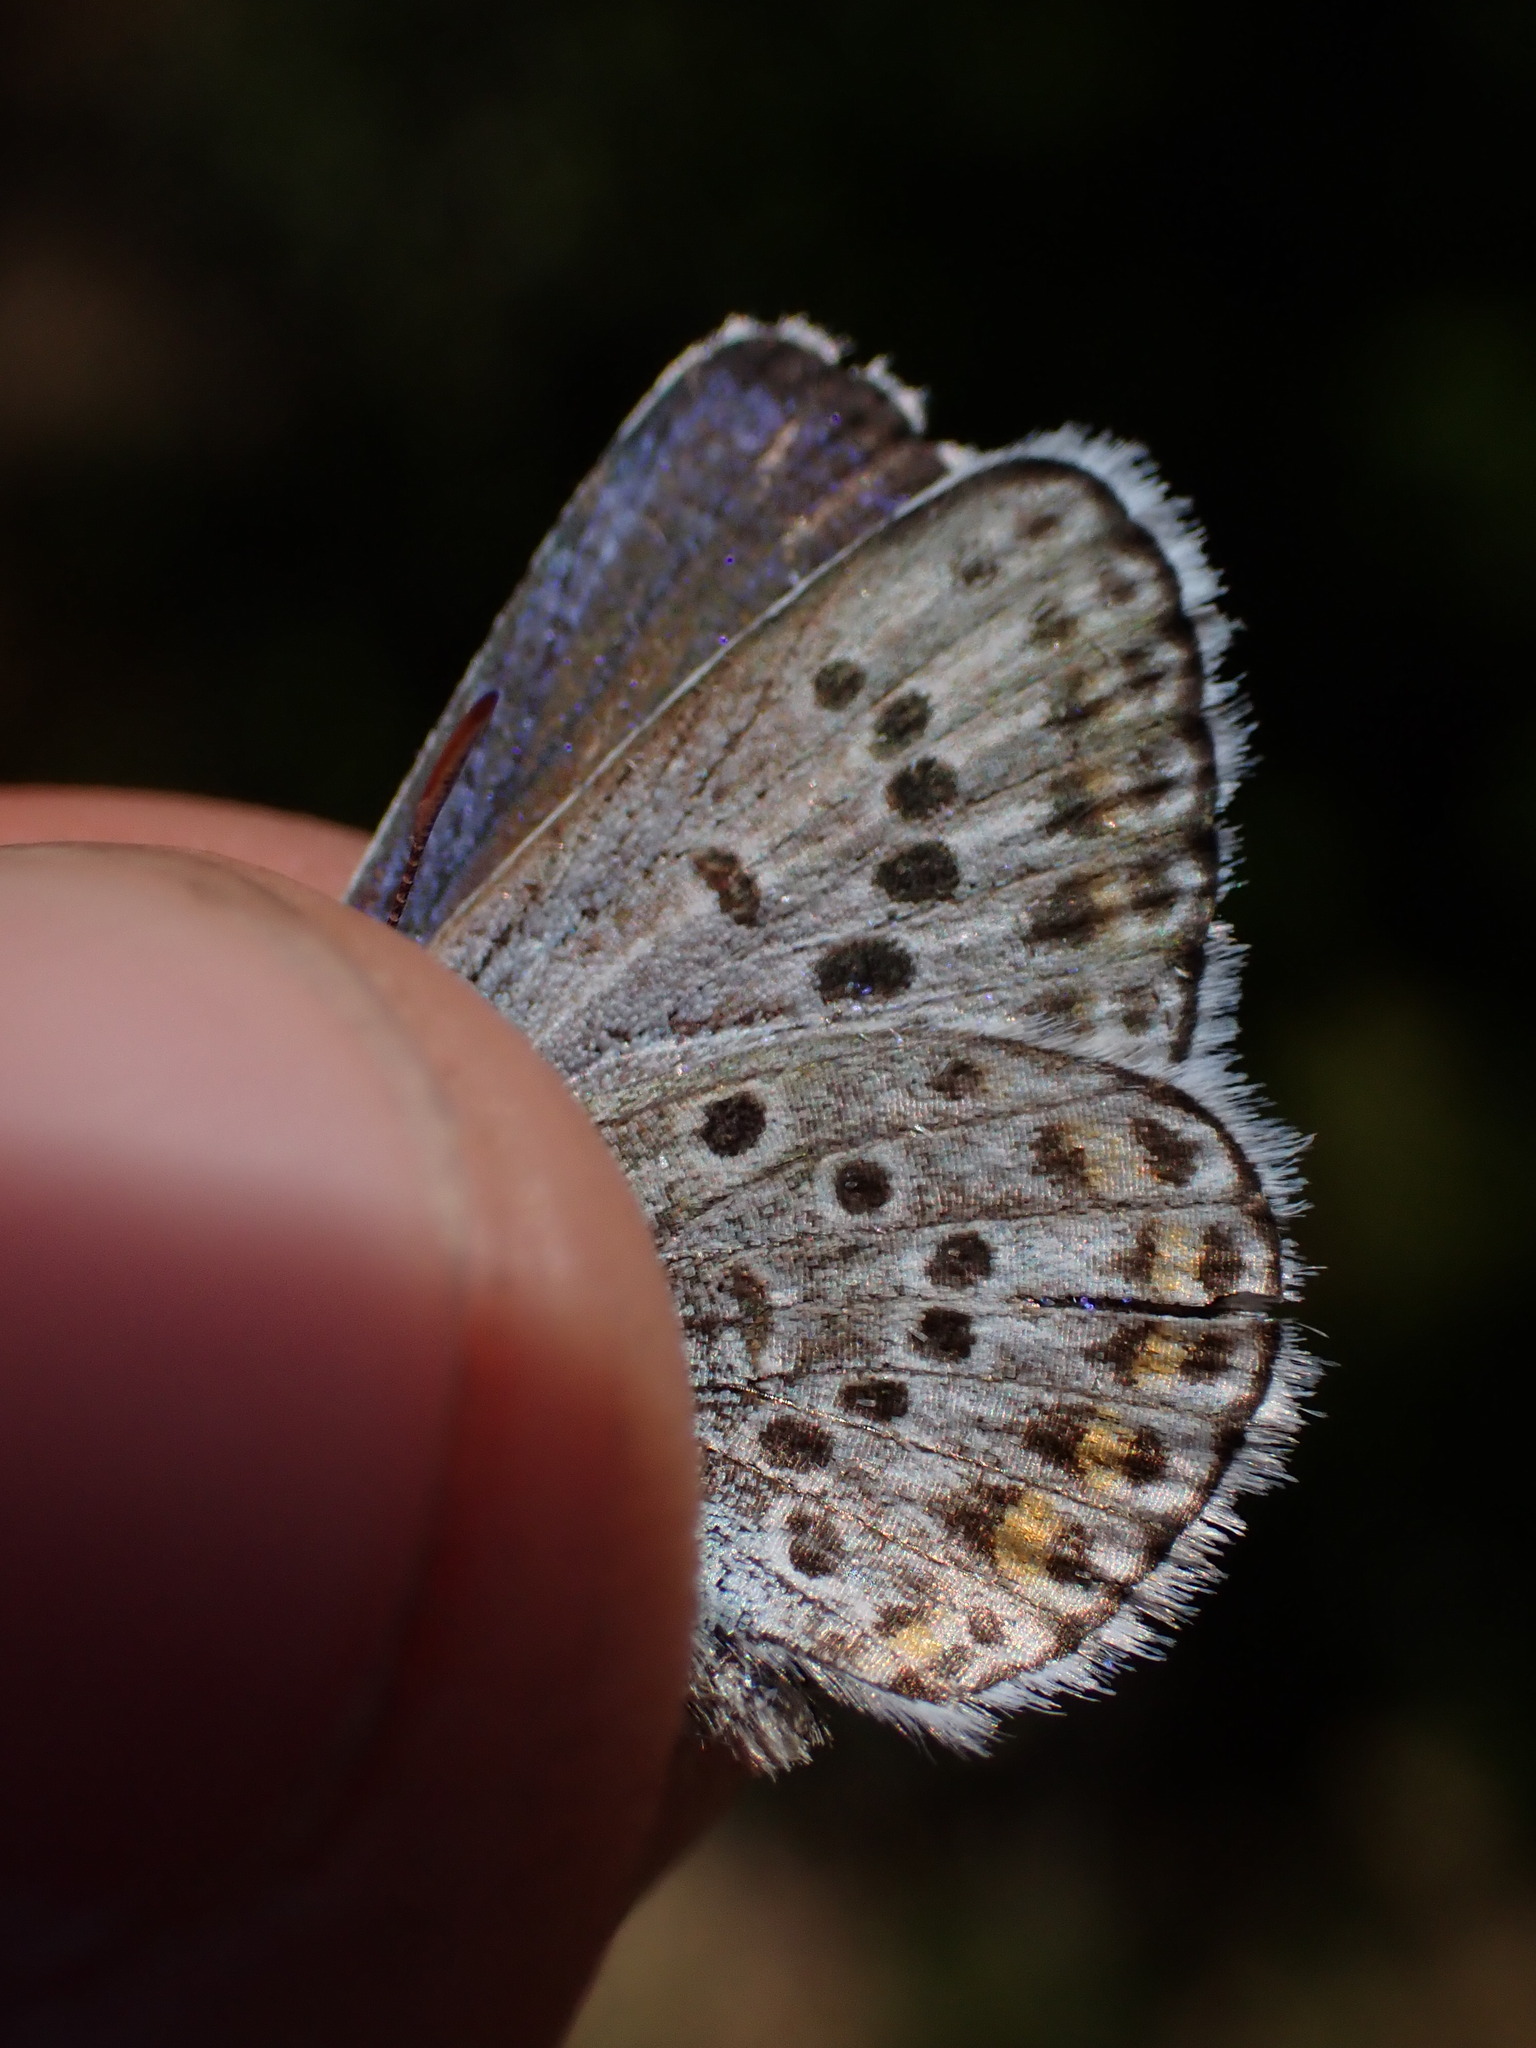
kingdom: Animalia
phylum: Arthropoda
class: Insecta
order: Lepidoptera
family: Lycaenidae
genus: Plebejus
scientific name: Plebejus argus
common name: Silver-studded blue
